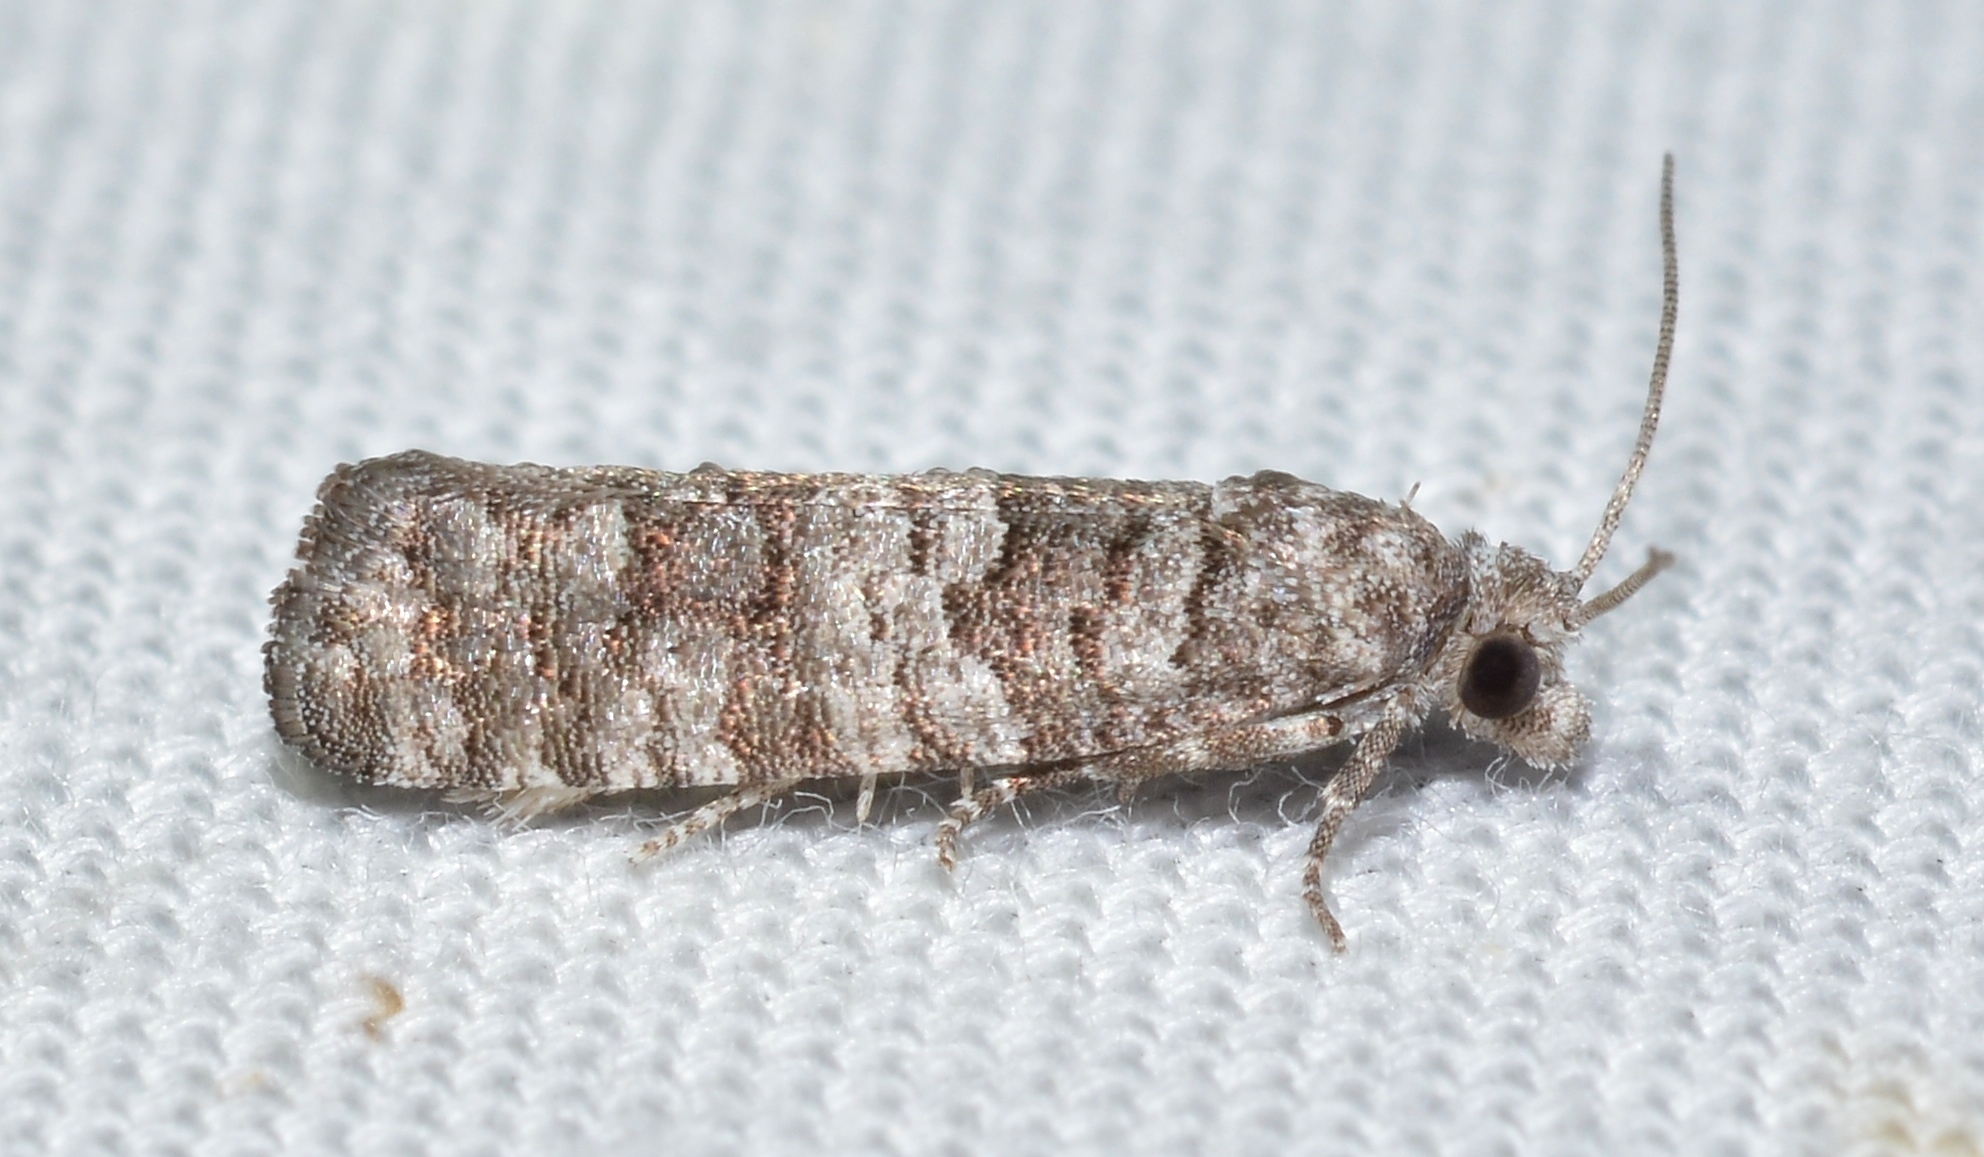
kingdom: Animalia
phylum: Arthropoda
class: Insecta
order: Lepidoptera
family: Tortricidae
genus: Retinia
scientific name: Retinia gemistrigulana
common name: Gray retinia moth
